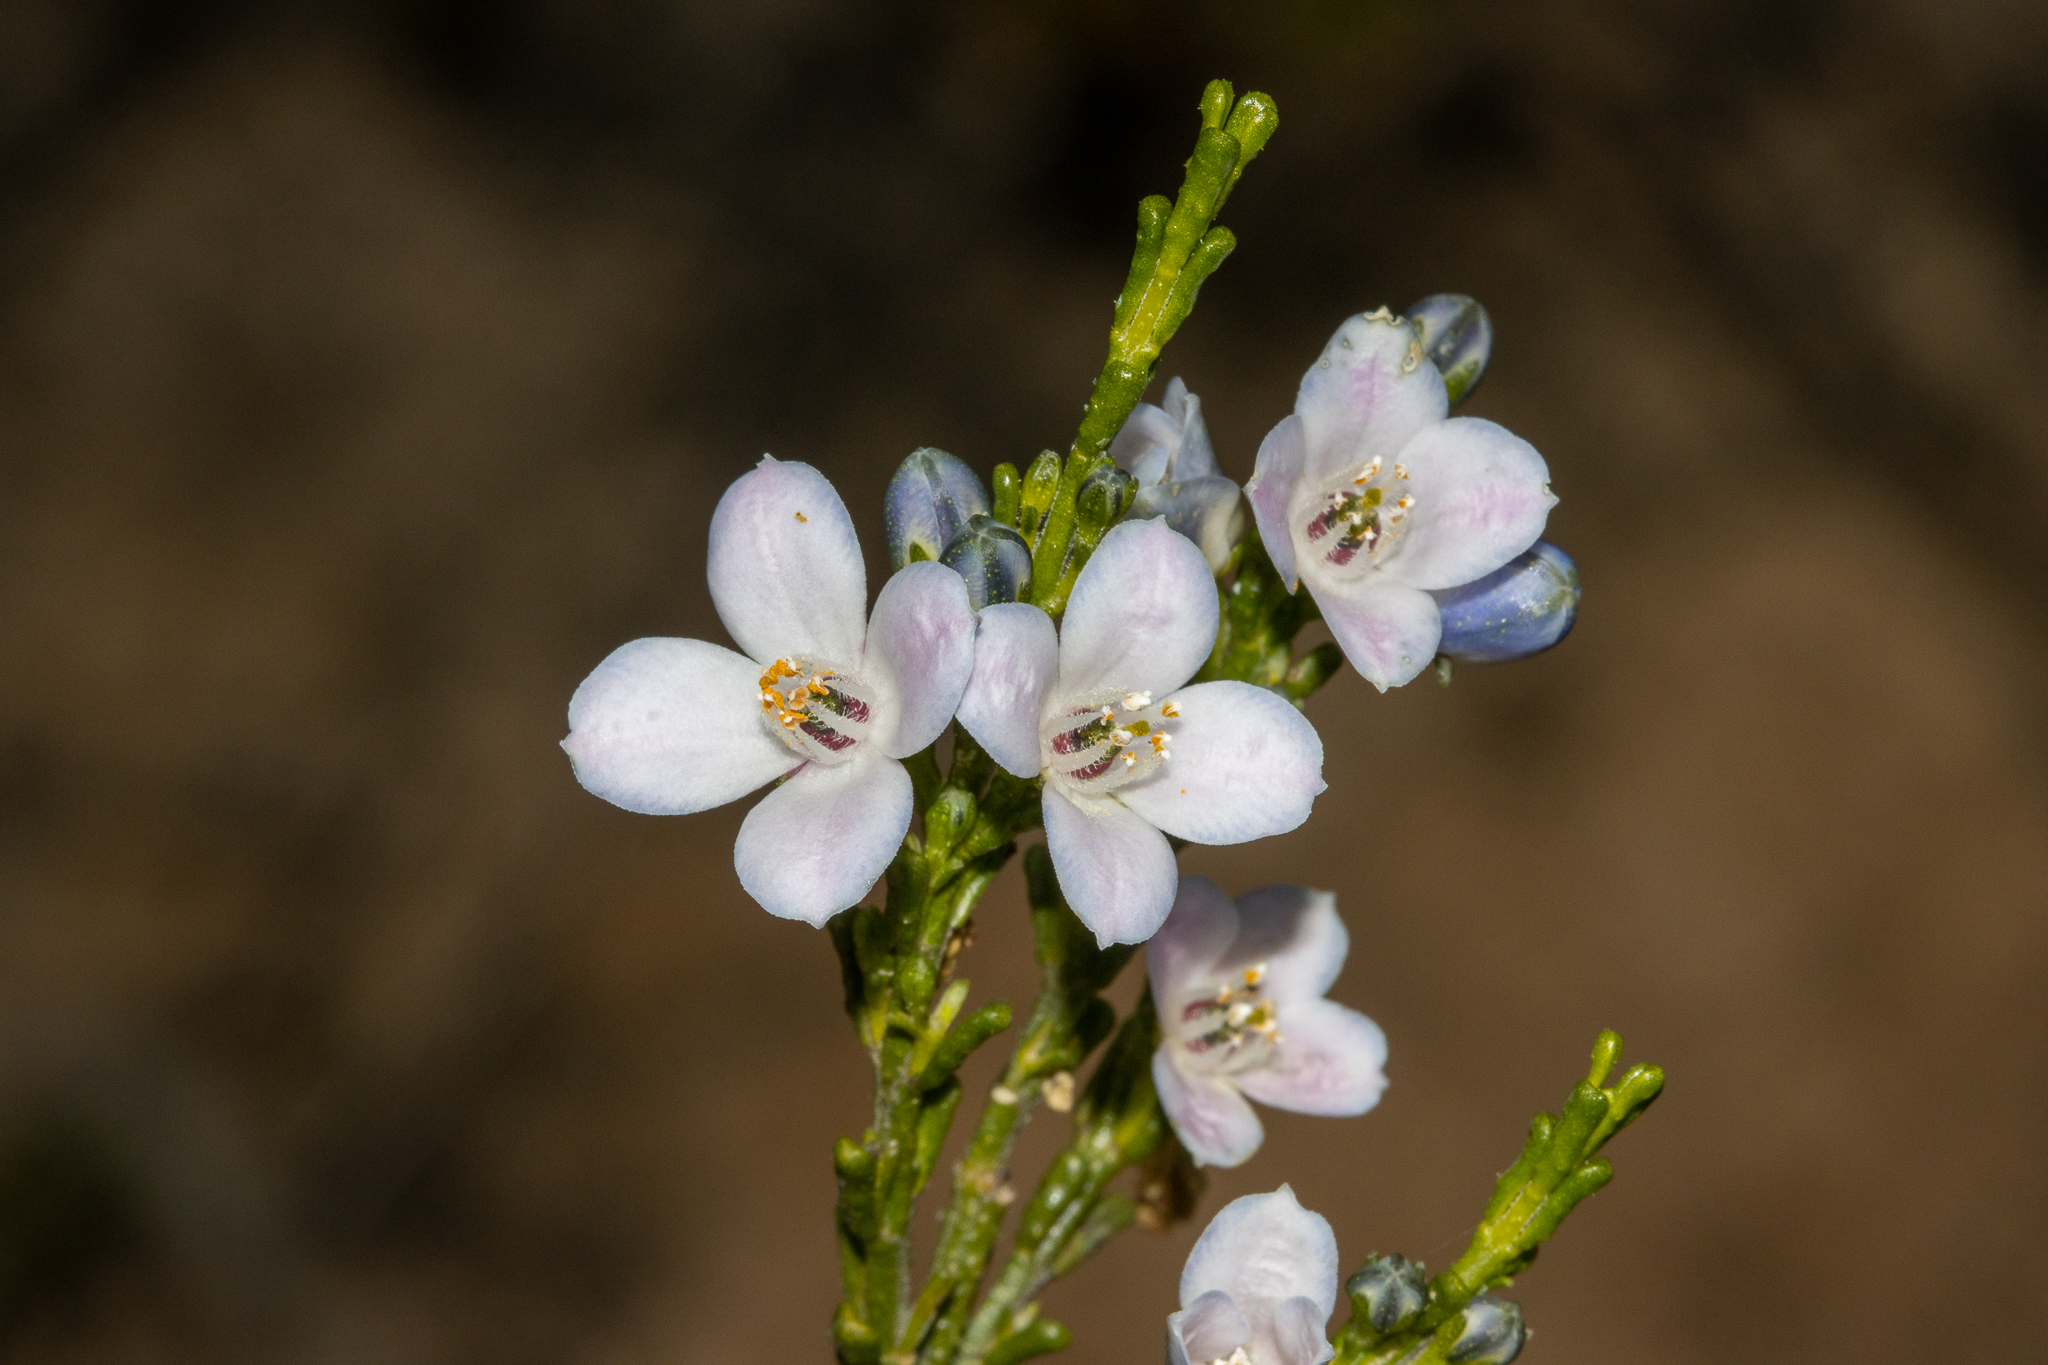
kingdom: Plantae
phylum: Tracheophyta
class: Magnoliopsida
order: Sapindales
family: Rutaceae
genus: Cyanothamnus
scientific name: Cyanothamnus coerulescens
